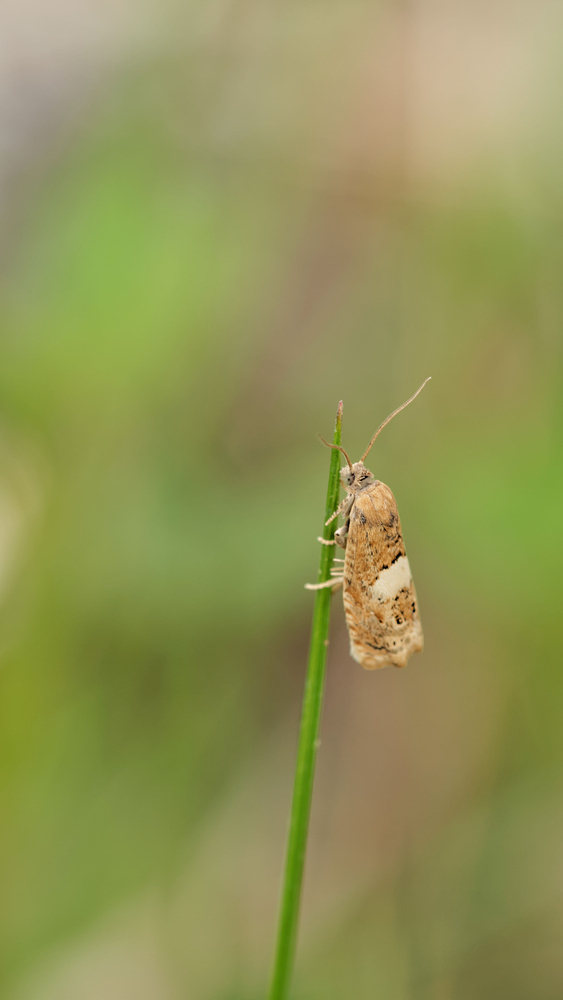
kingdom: Animalia
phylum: Arthropoda
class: Insecta
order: Lepidoptera
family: Tortricidae
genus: Epiblema
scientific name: Epiblema sticticana
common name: Colt's-foot bell
